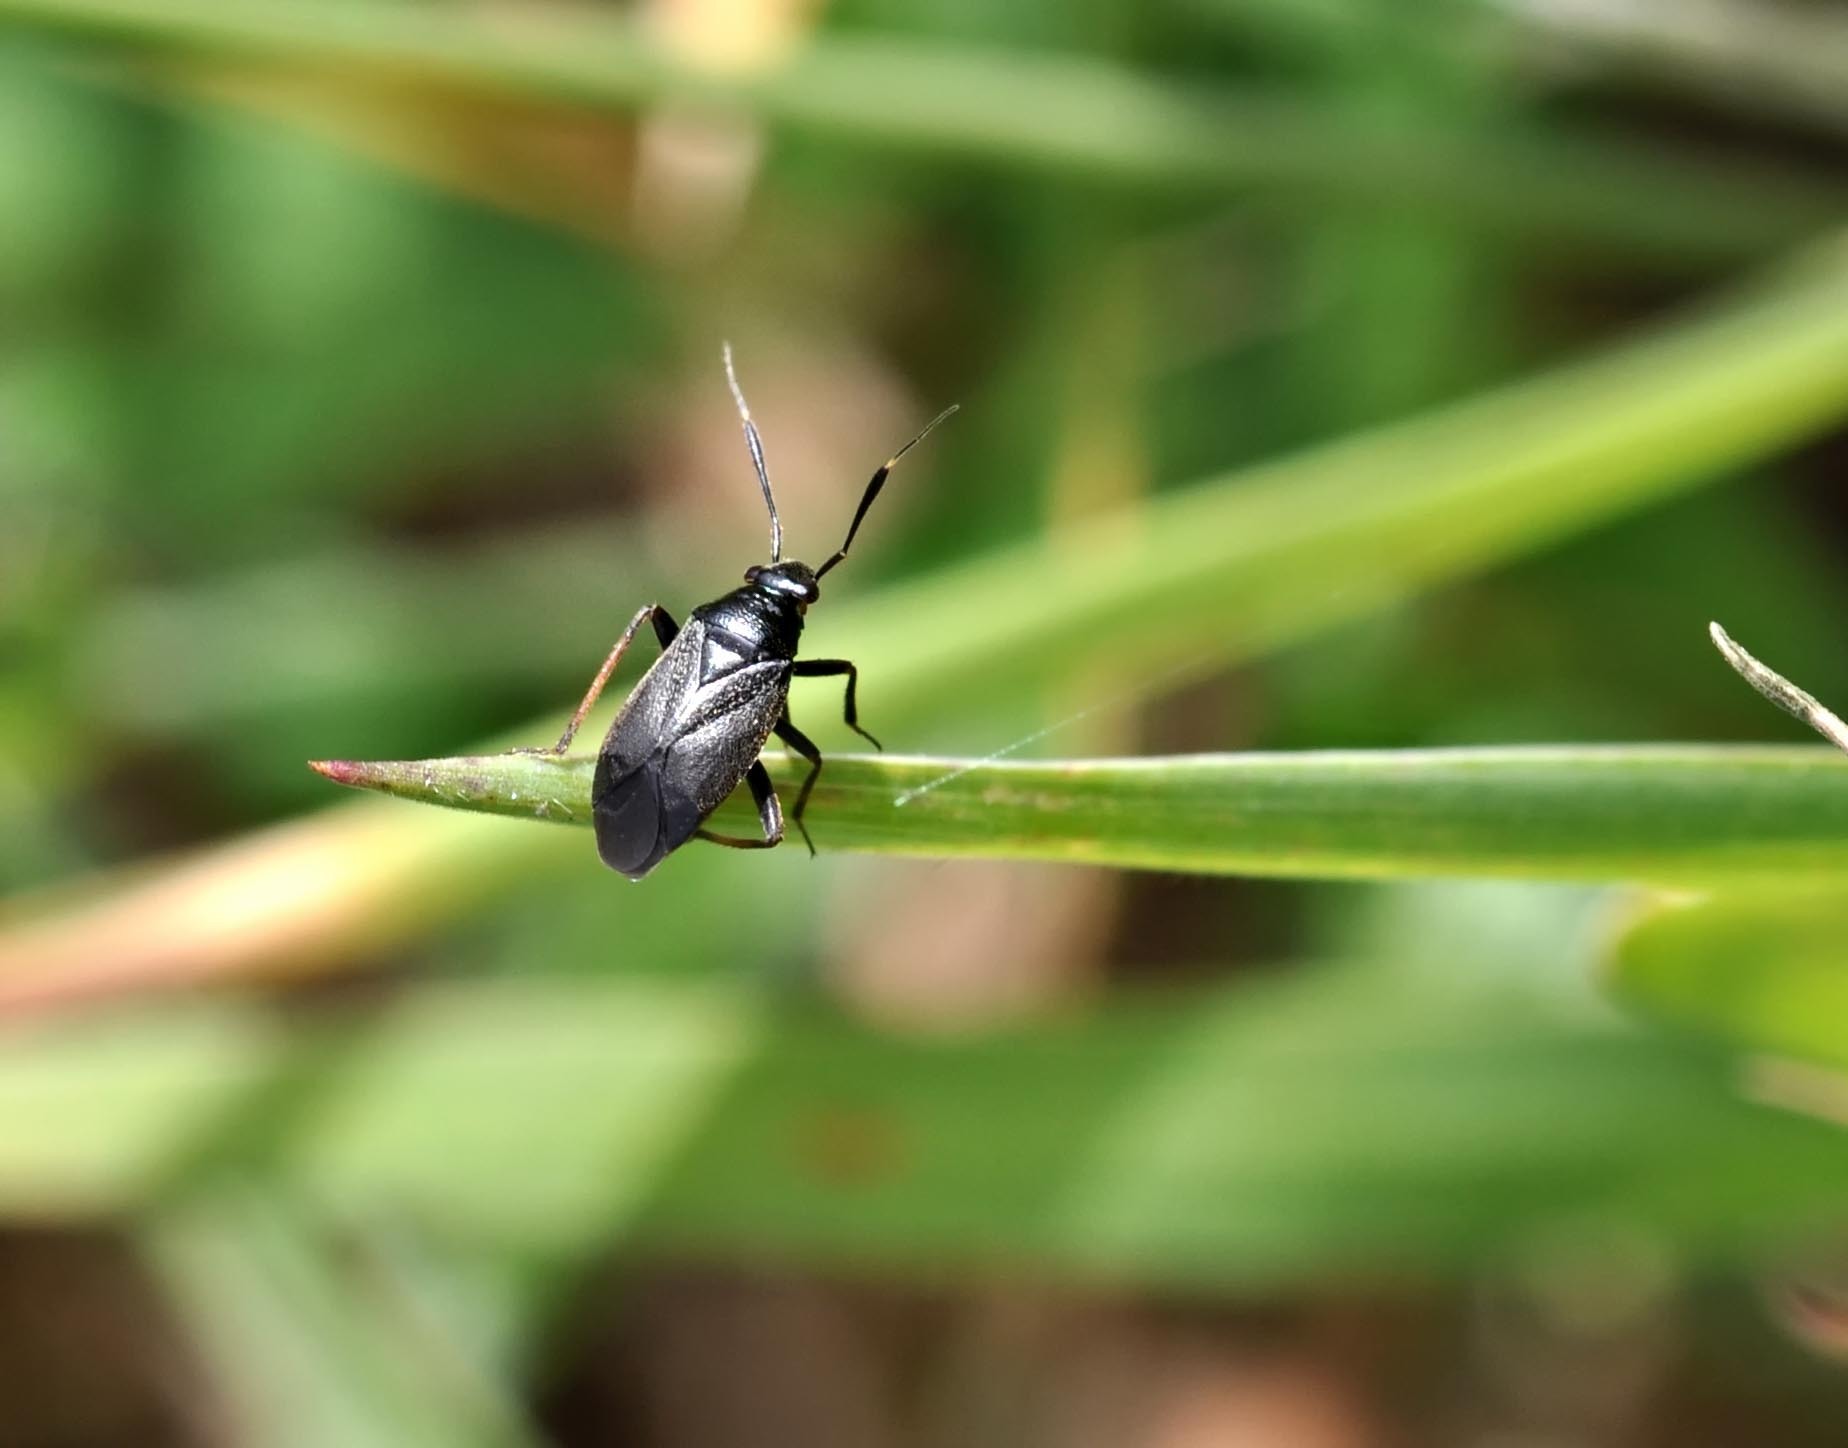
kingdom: Animalia
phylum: Arthropoda
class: Insecta
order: Hemiptera
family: Miridae
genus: Capsus
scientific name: Capsus ater
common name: Black plant bug
